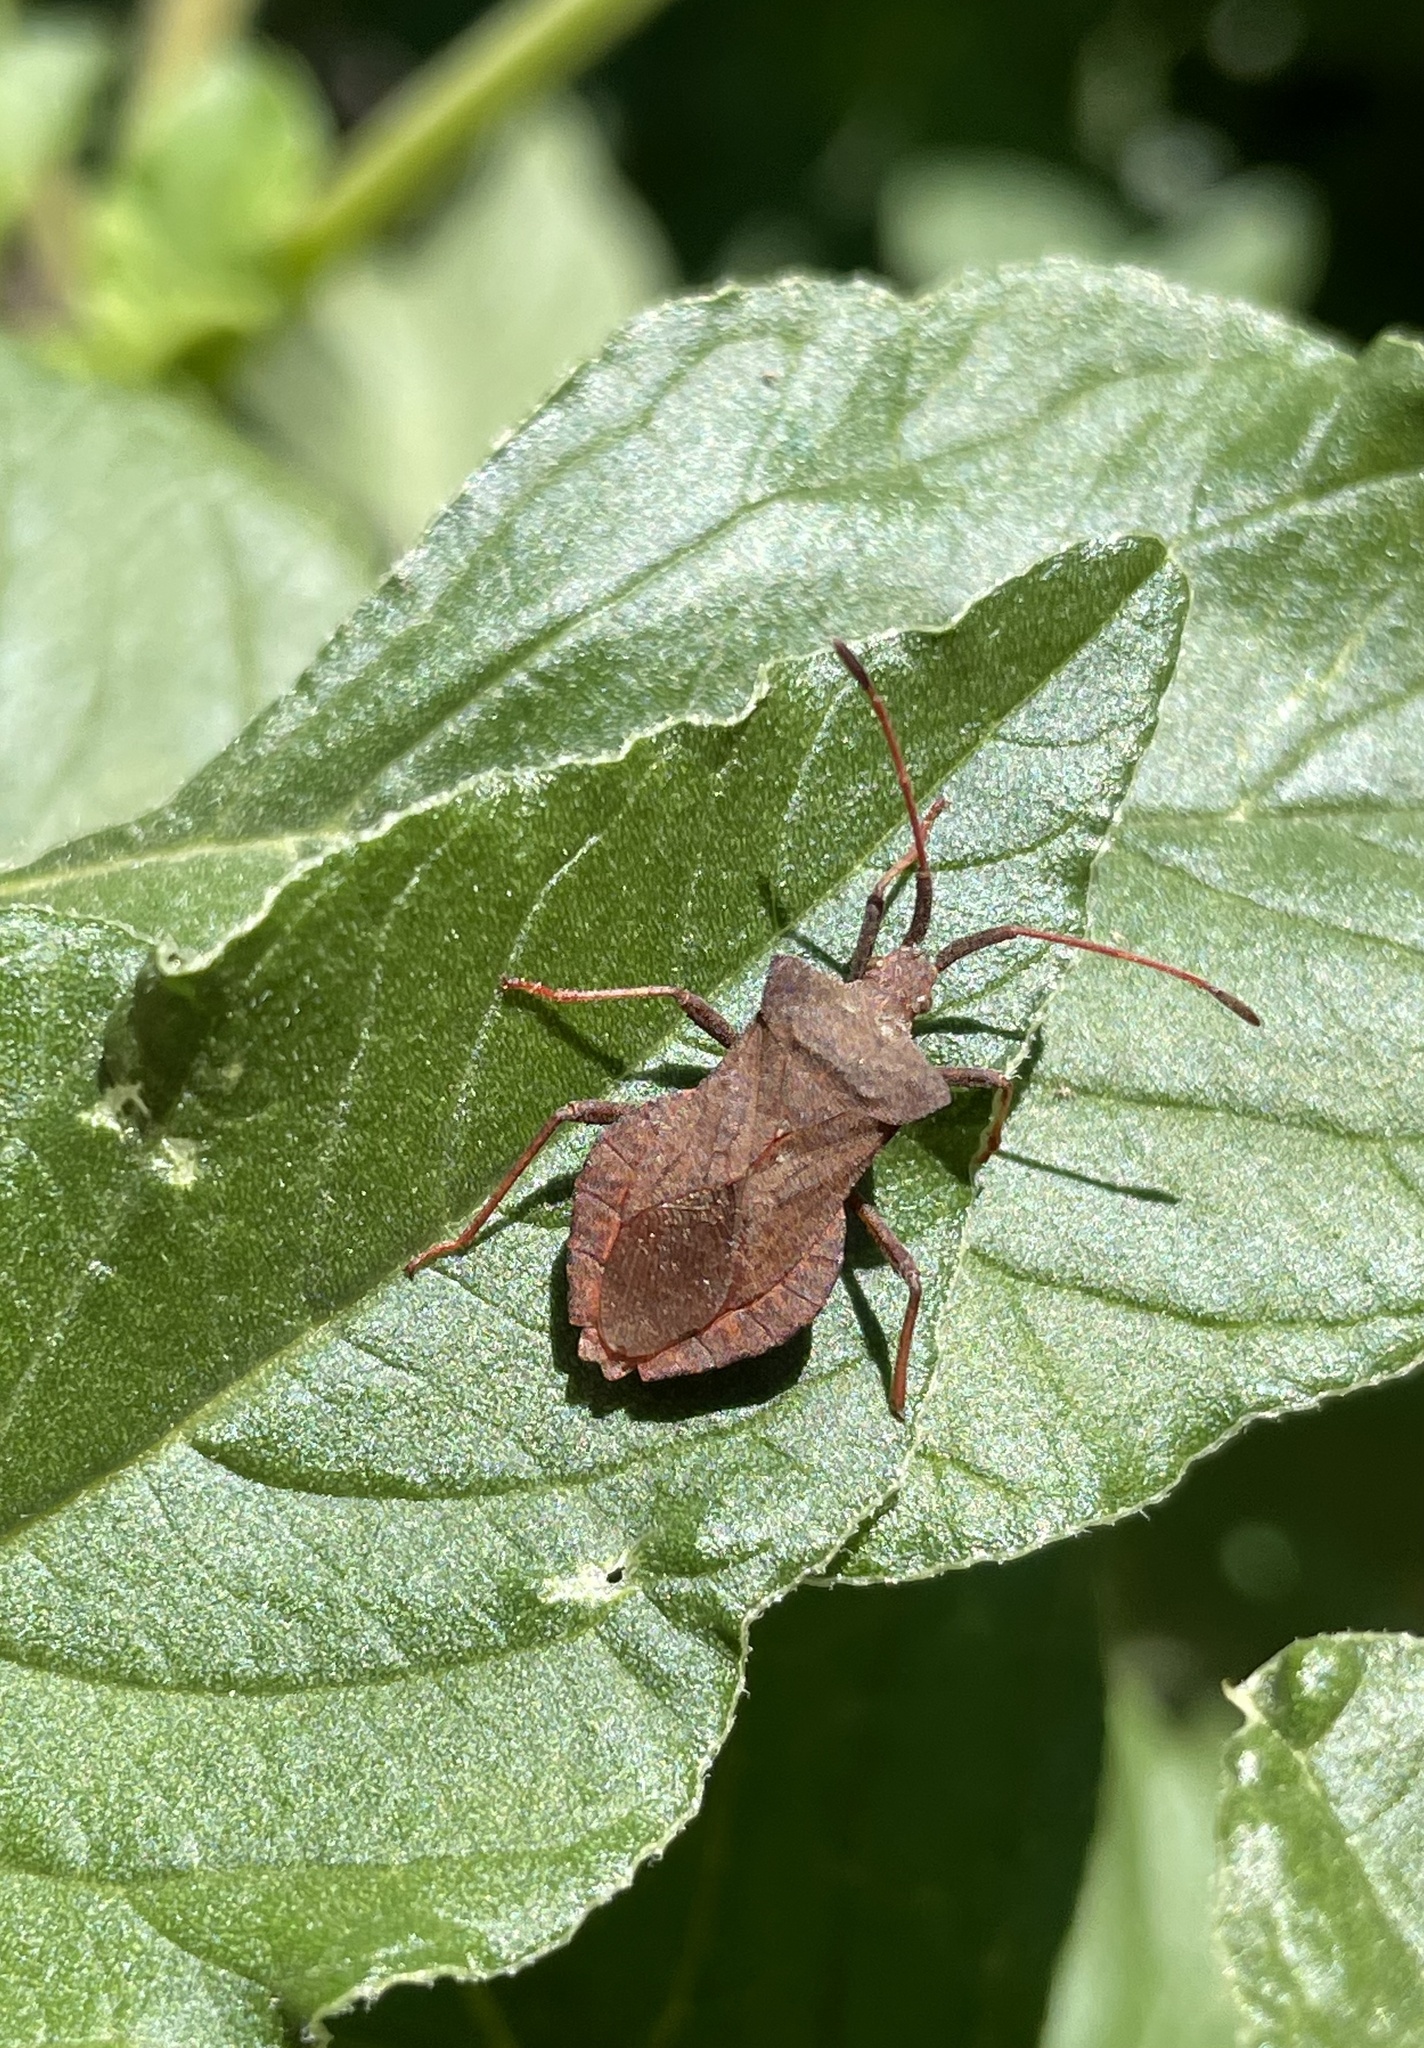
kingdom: Animalia
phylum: Arthropoda
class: Insecta
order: Hemiptera
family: Coreidae
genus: Coreus
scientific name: Coreus marginatus
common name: Dock bug
